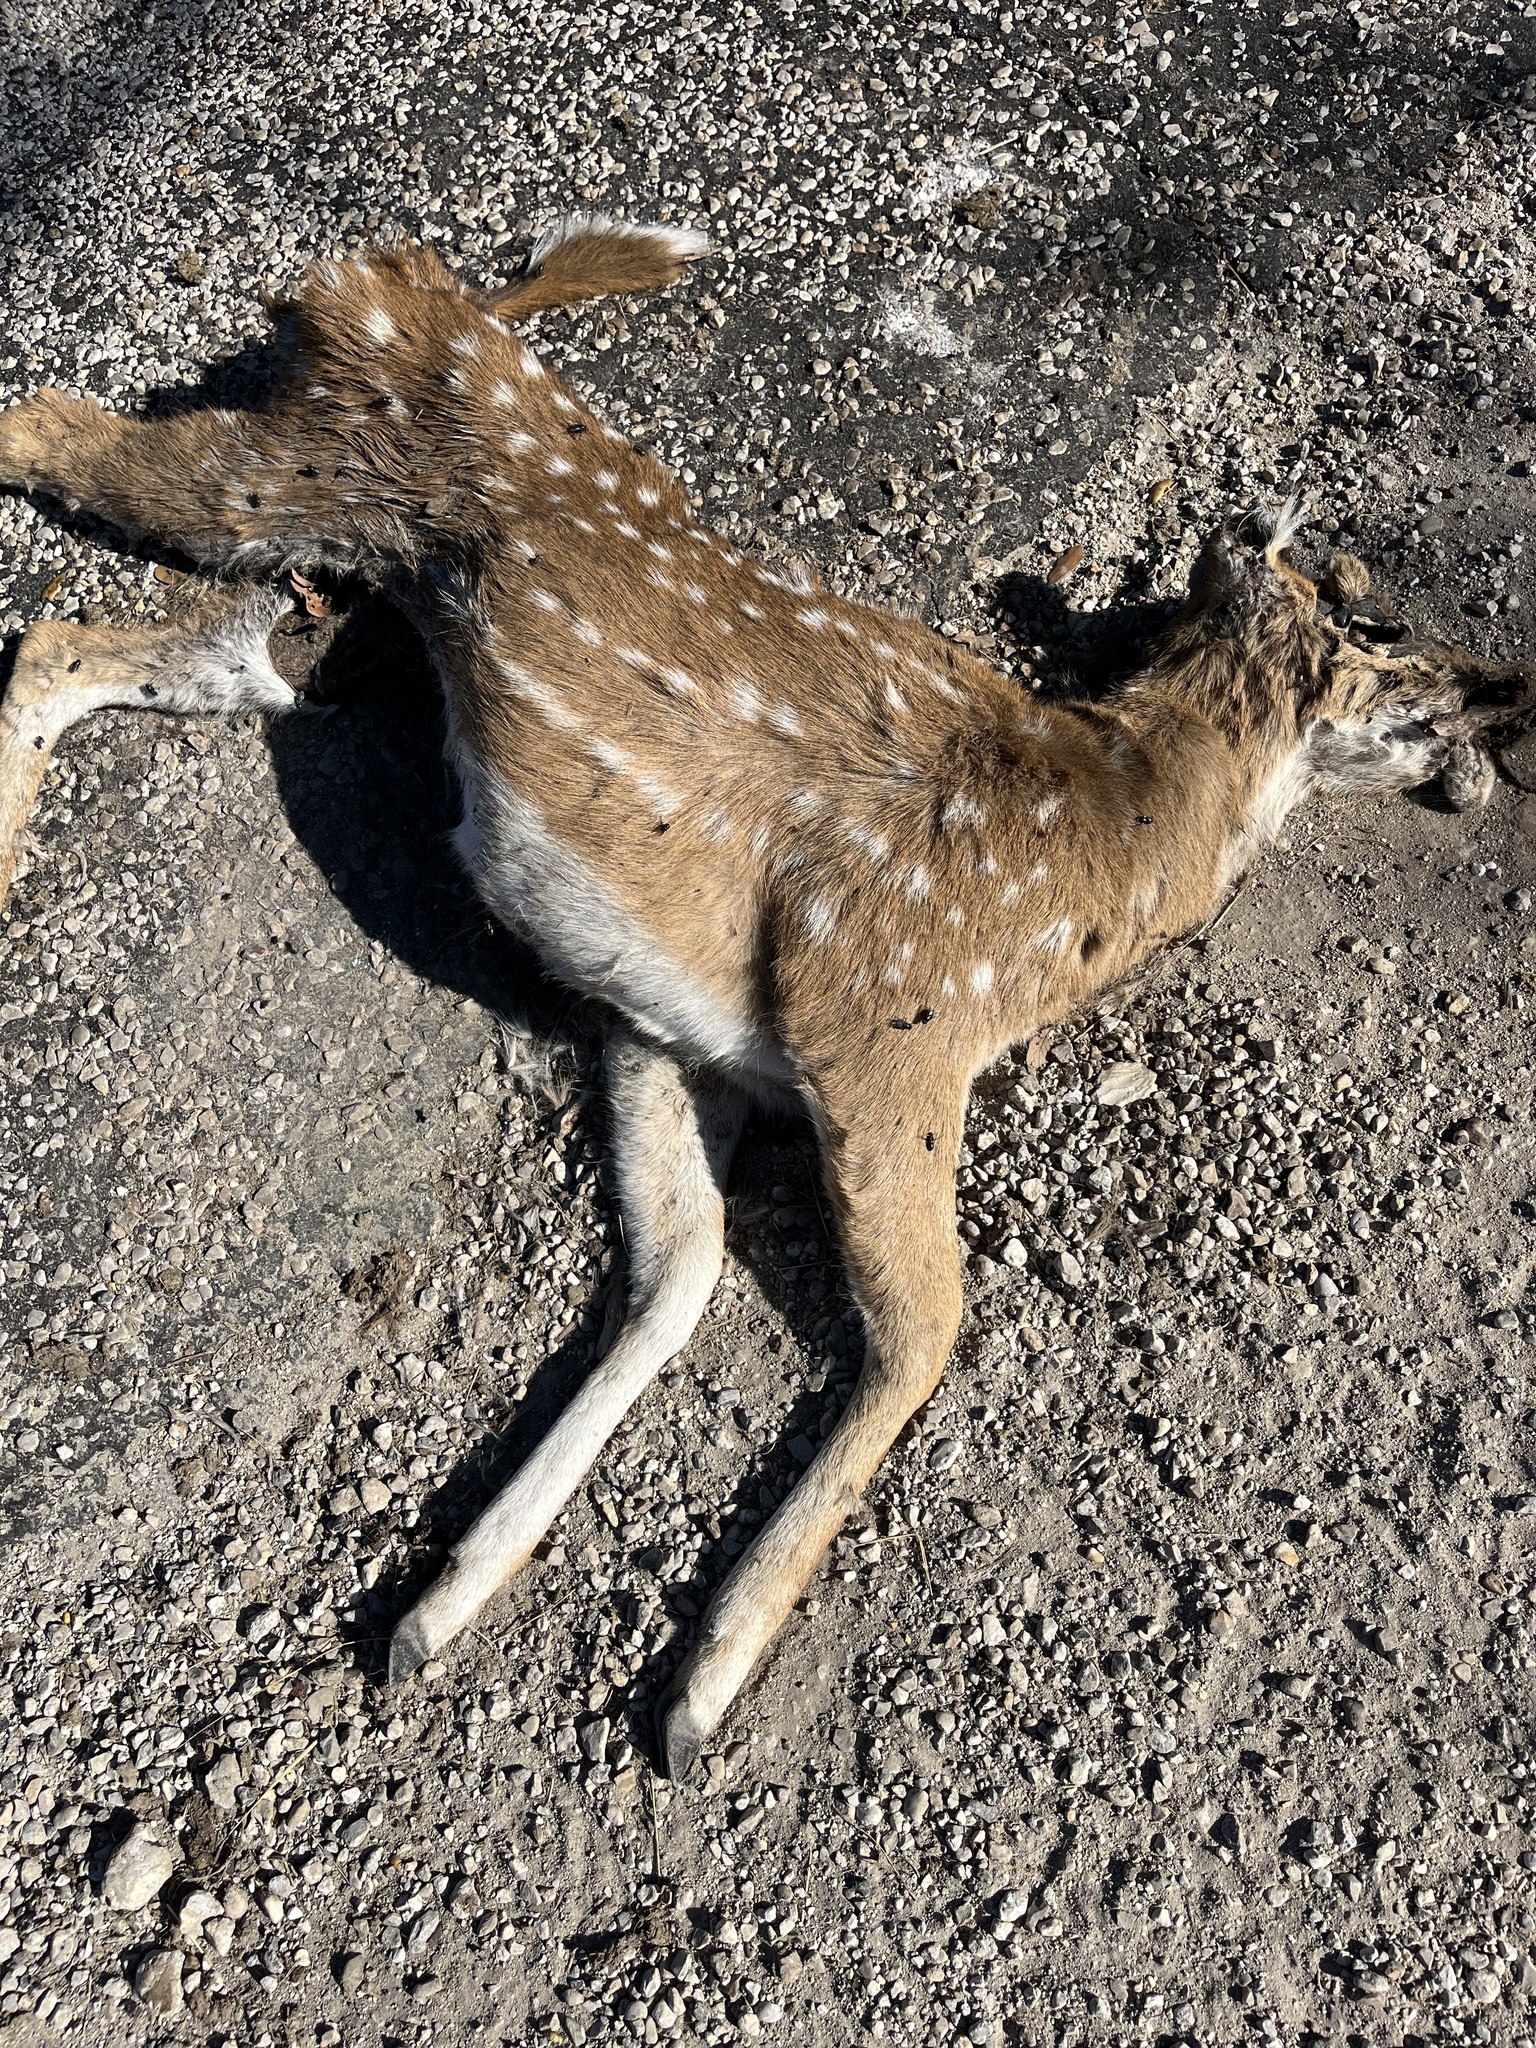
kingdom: Animalia
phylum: Chordata
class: Mammalia
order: Artiodactyla
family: Cervidae
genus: Axis
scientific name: Axis axis
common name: Chital
